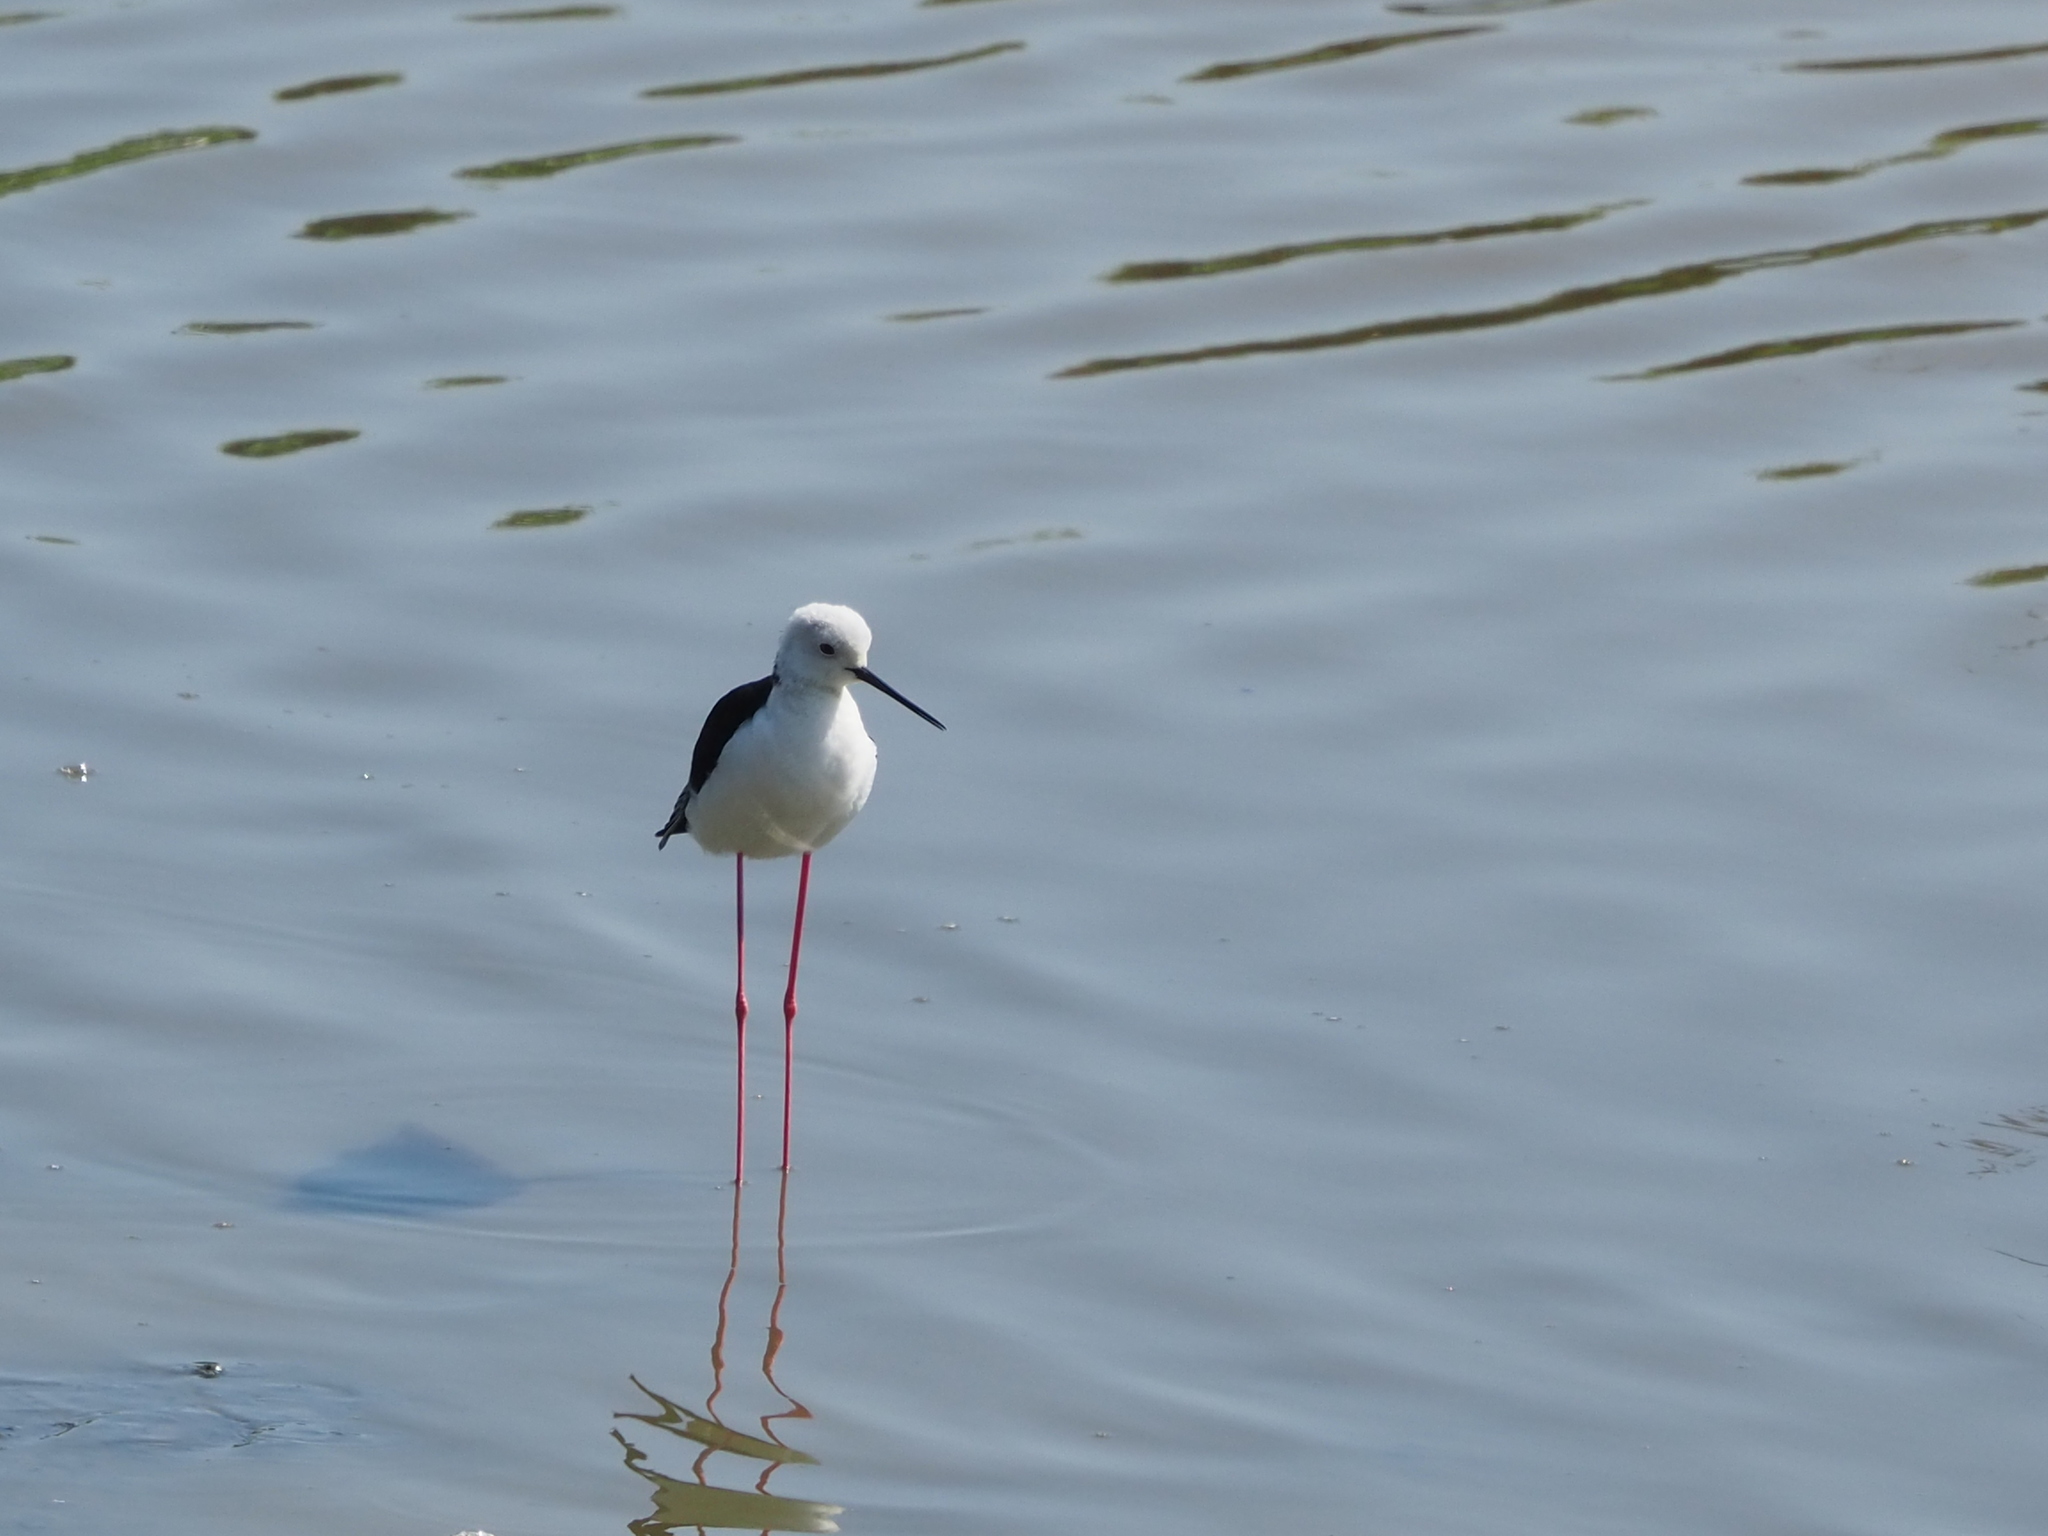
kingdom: Animalia
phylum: Chordata
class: Aves
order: Charadriiformes
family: Recurvirostridae
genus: Himantopus
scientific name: Himantopus himantopus
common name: Black-winged stilt
